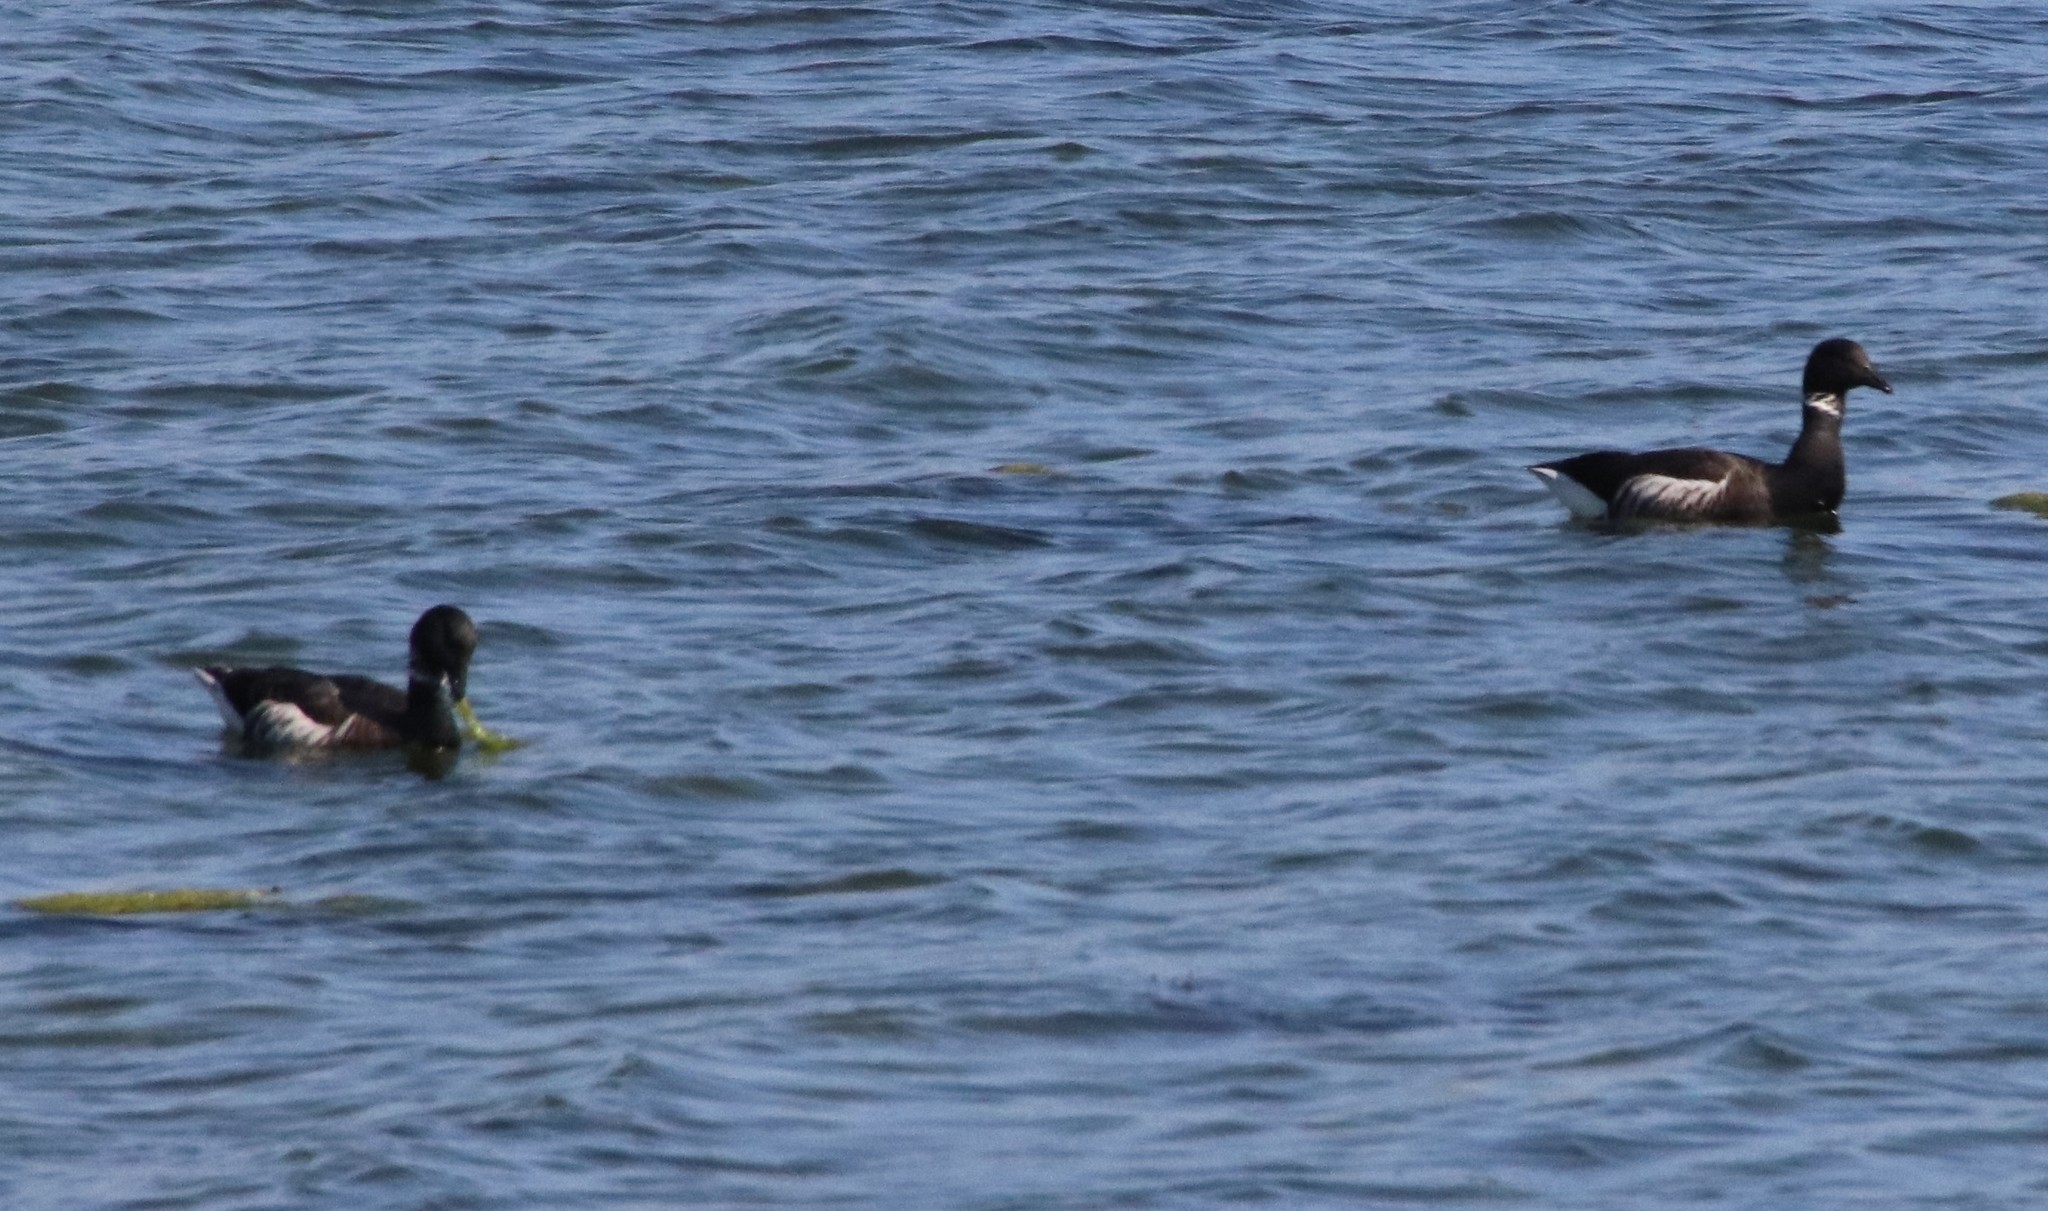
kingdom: Animalia
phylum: Chordata
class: Aves
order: Anseriformes
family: Anatidae
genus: Branta
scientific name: Branta bernicla
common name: Brant goose
